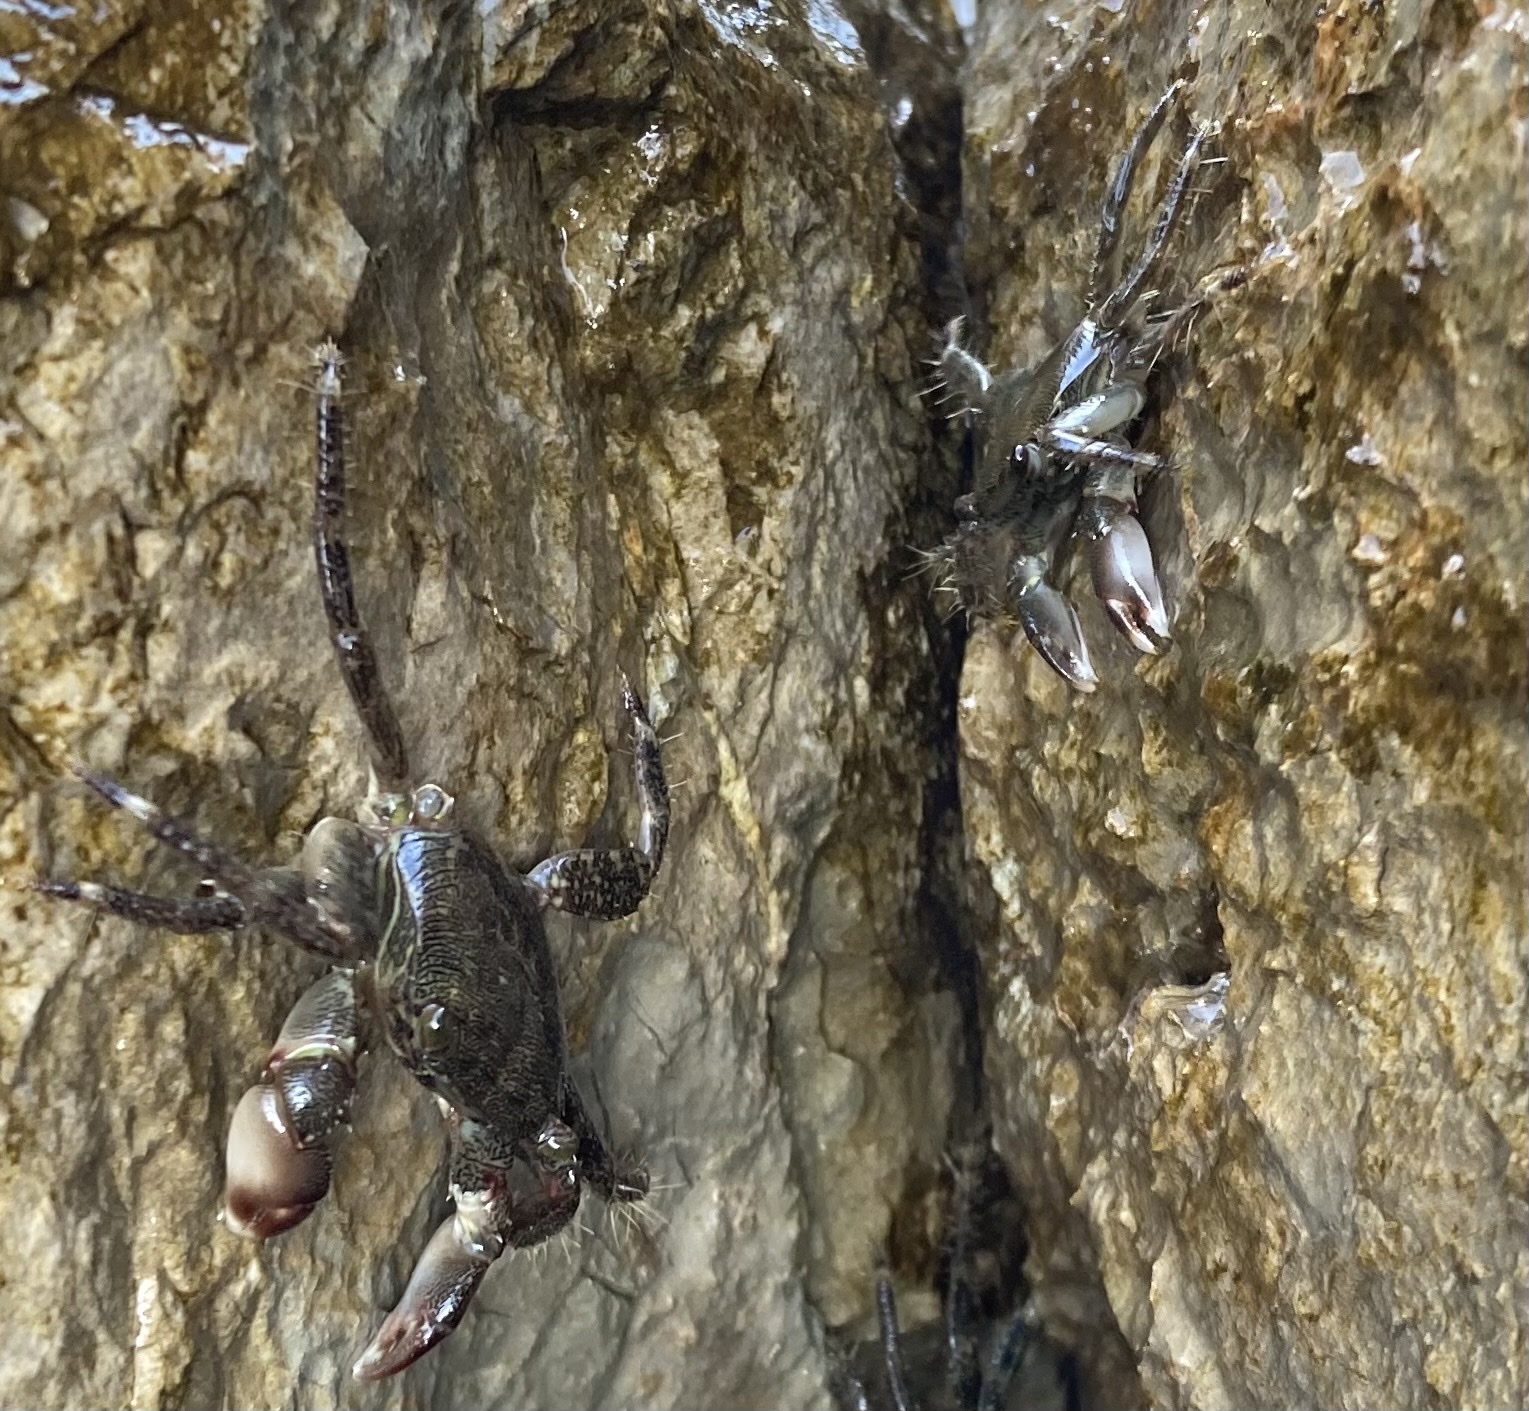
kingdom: Animalia
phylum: Arthropoda
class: Malacostraca
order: Decapoda
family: Grapsidae
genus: Pachygrapsus
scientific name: Pachygrapsus marmoratus
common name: Marbled rock crab
